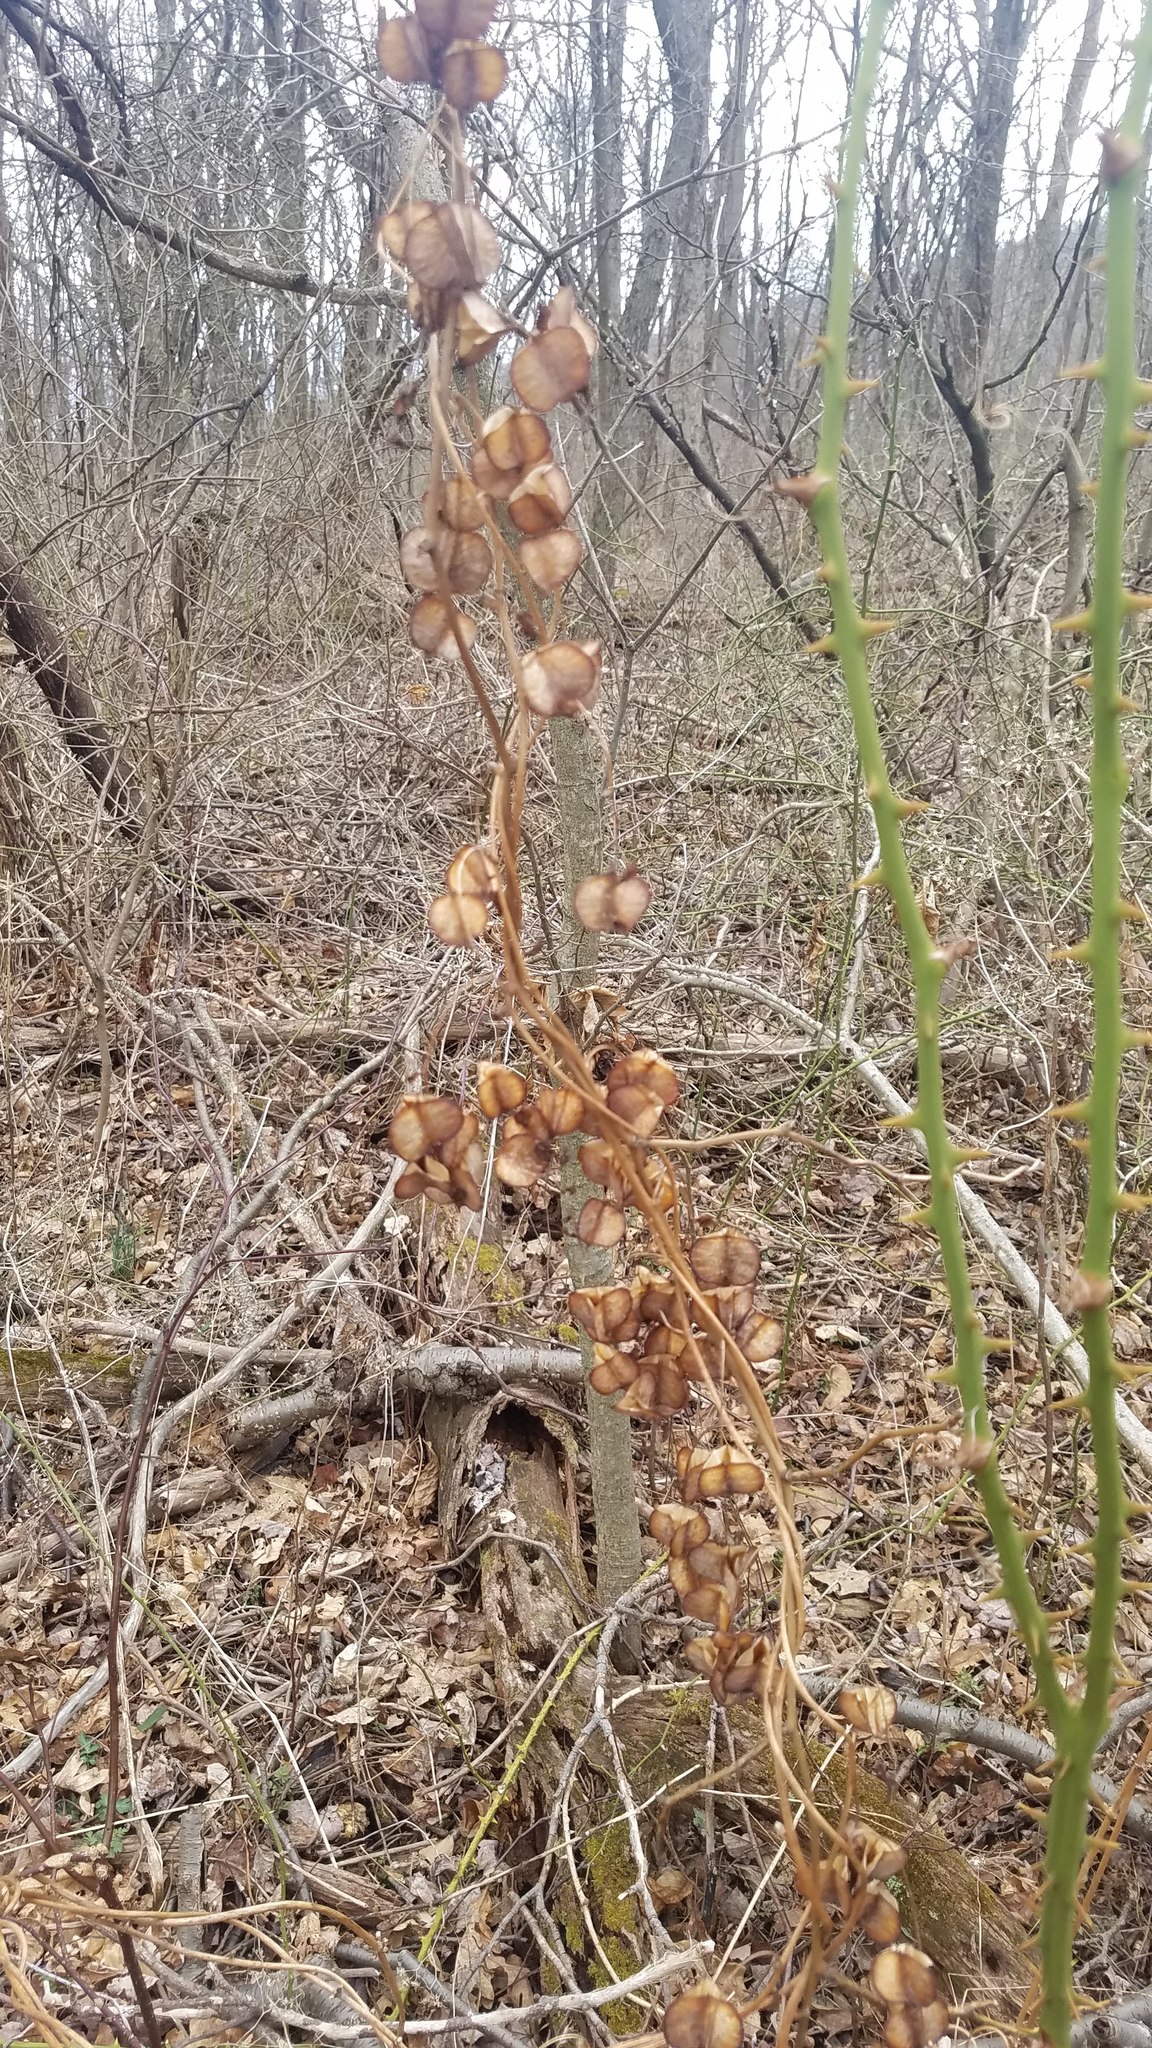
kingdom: Plantae
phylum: Tracheophyta
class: Liliopsida
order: Dioscoreales
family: Dioscoreaceae
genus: Dioscorea
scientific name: Dioscorea villosa
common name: Wild yam
